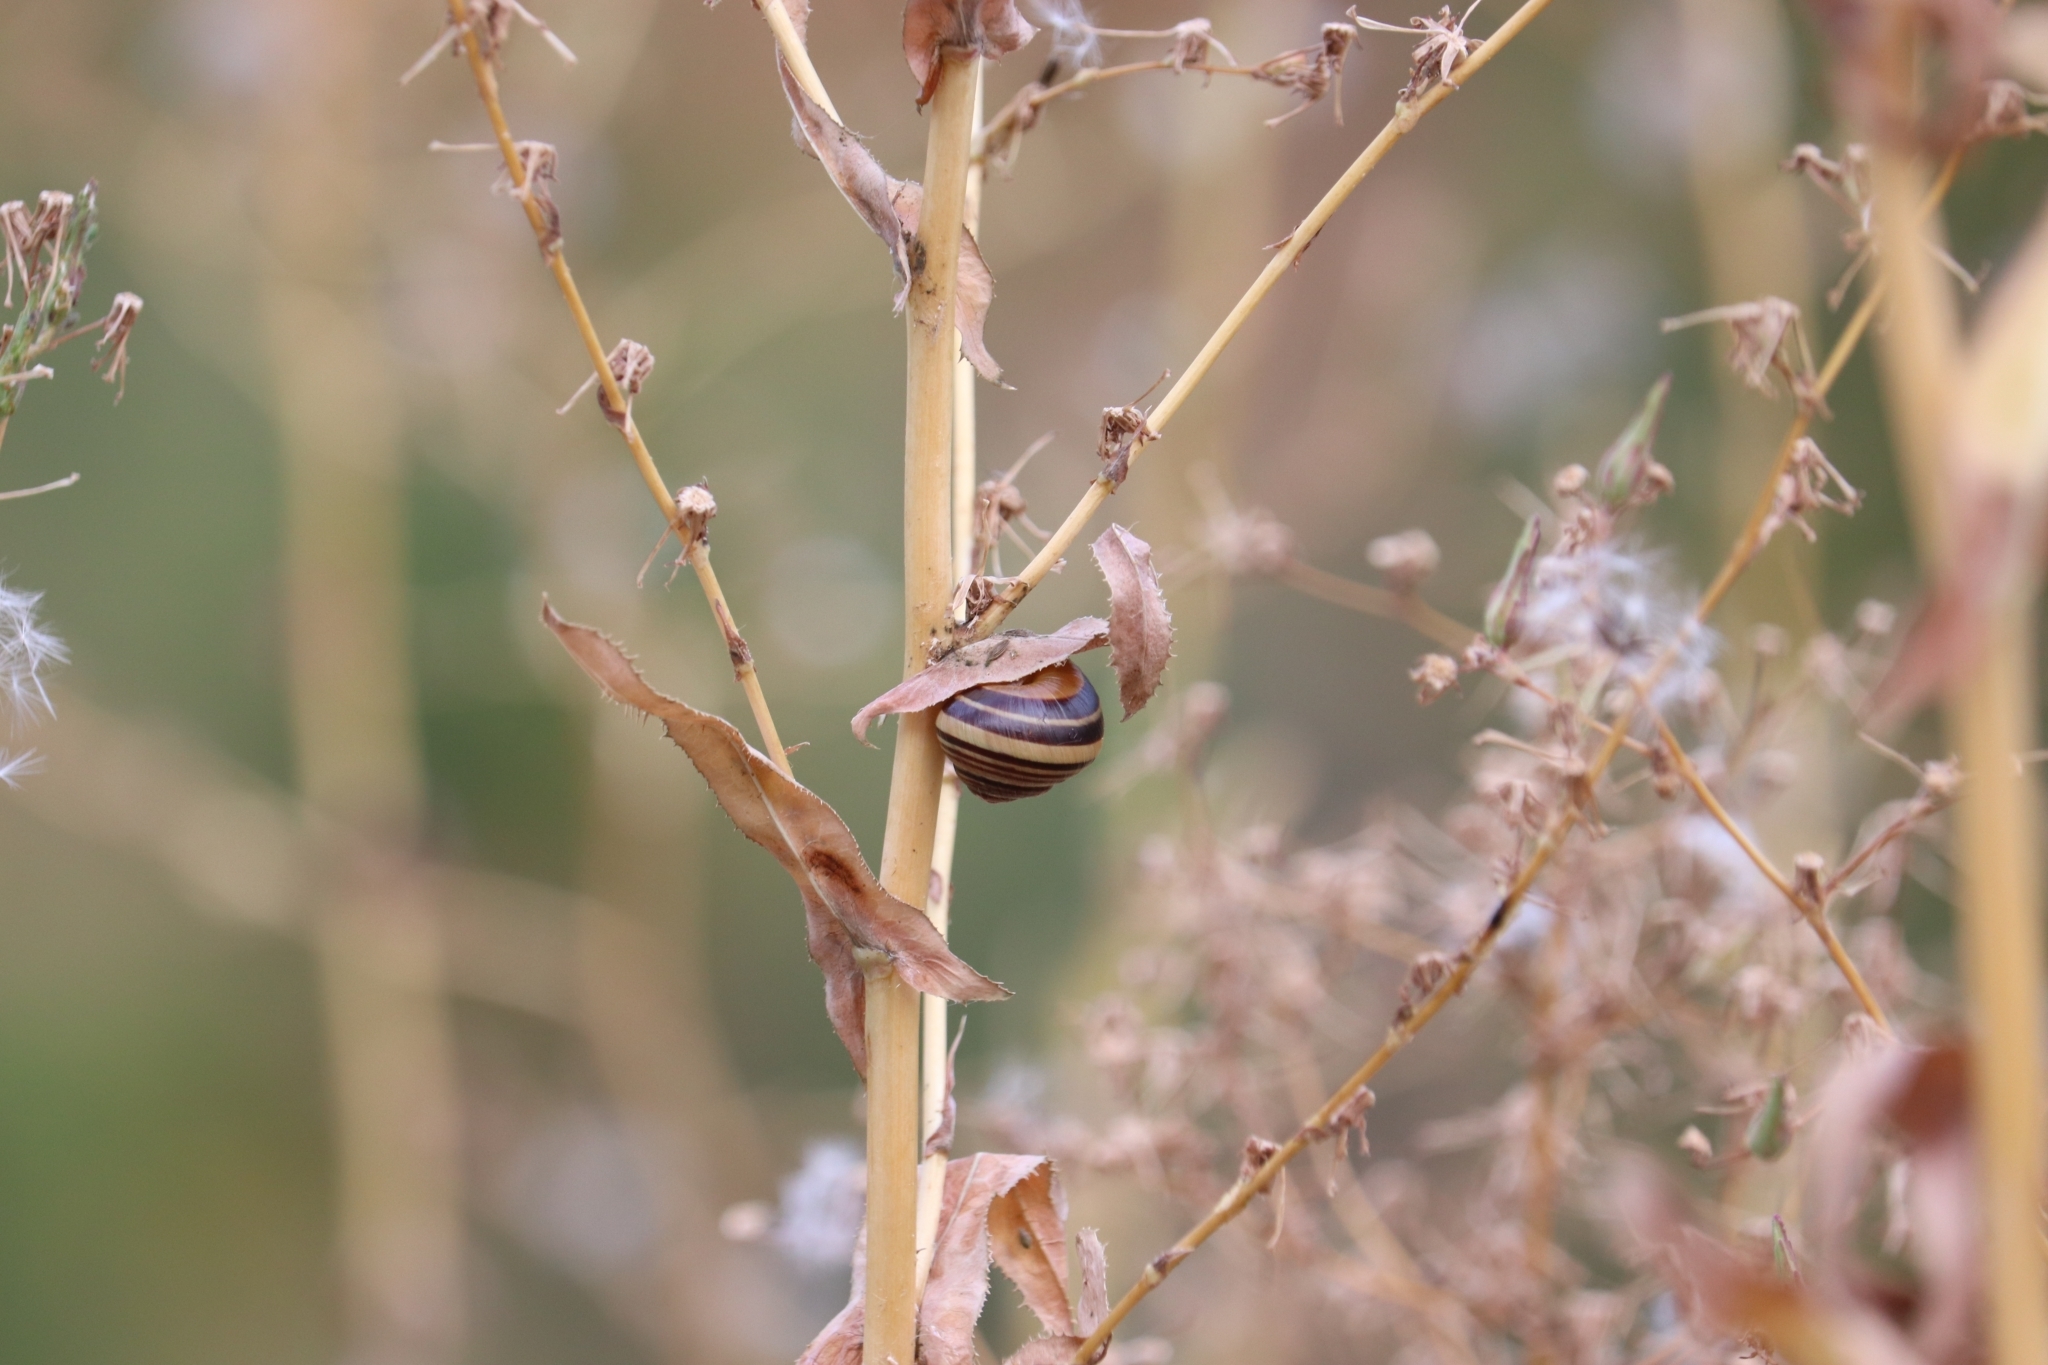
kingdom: Animalia
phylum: Mollusca
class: Gastropoda
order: Stylommatophora
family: Helicidae
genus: Cepaea
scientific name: Cepaea nemoralis
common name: Grovesnail
